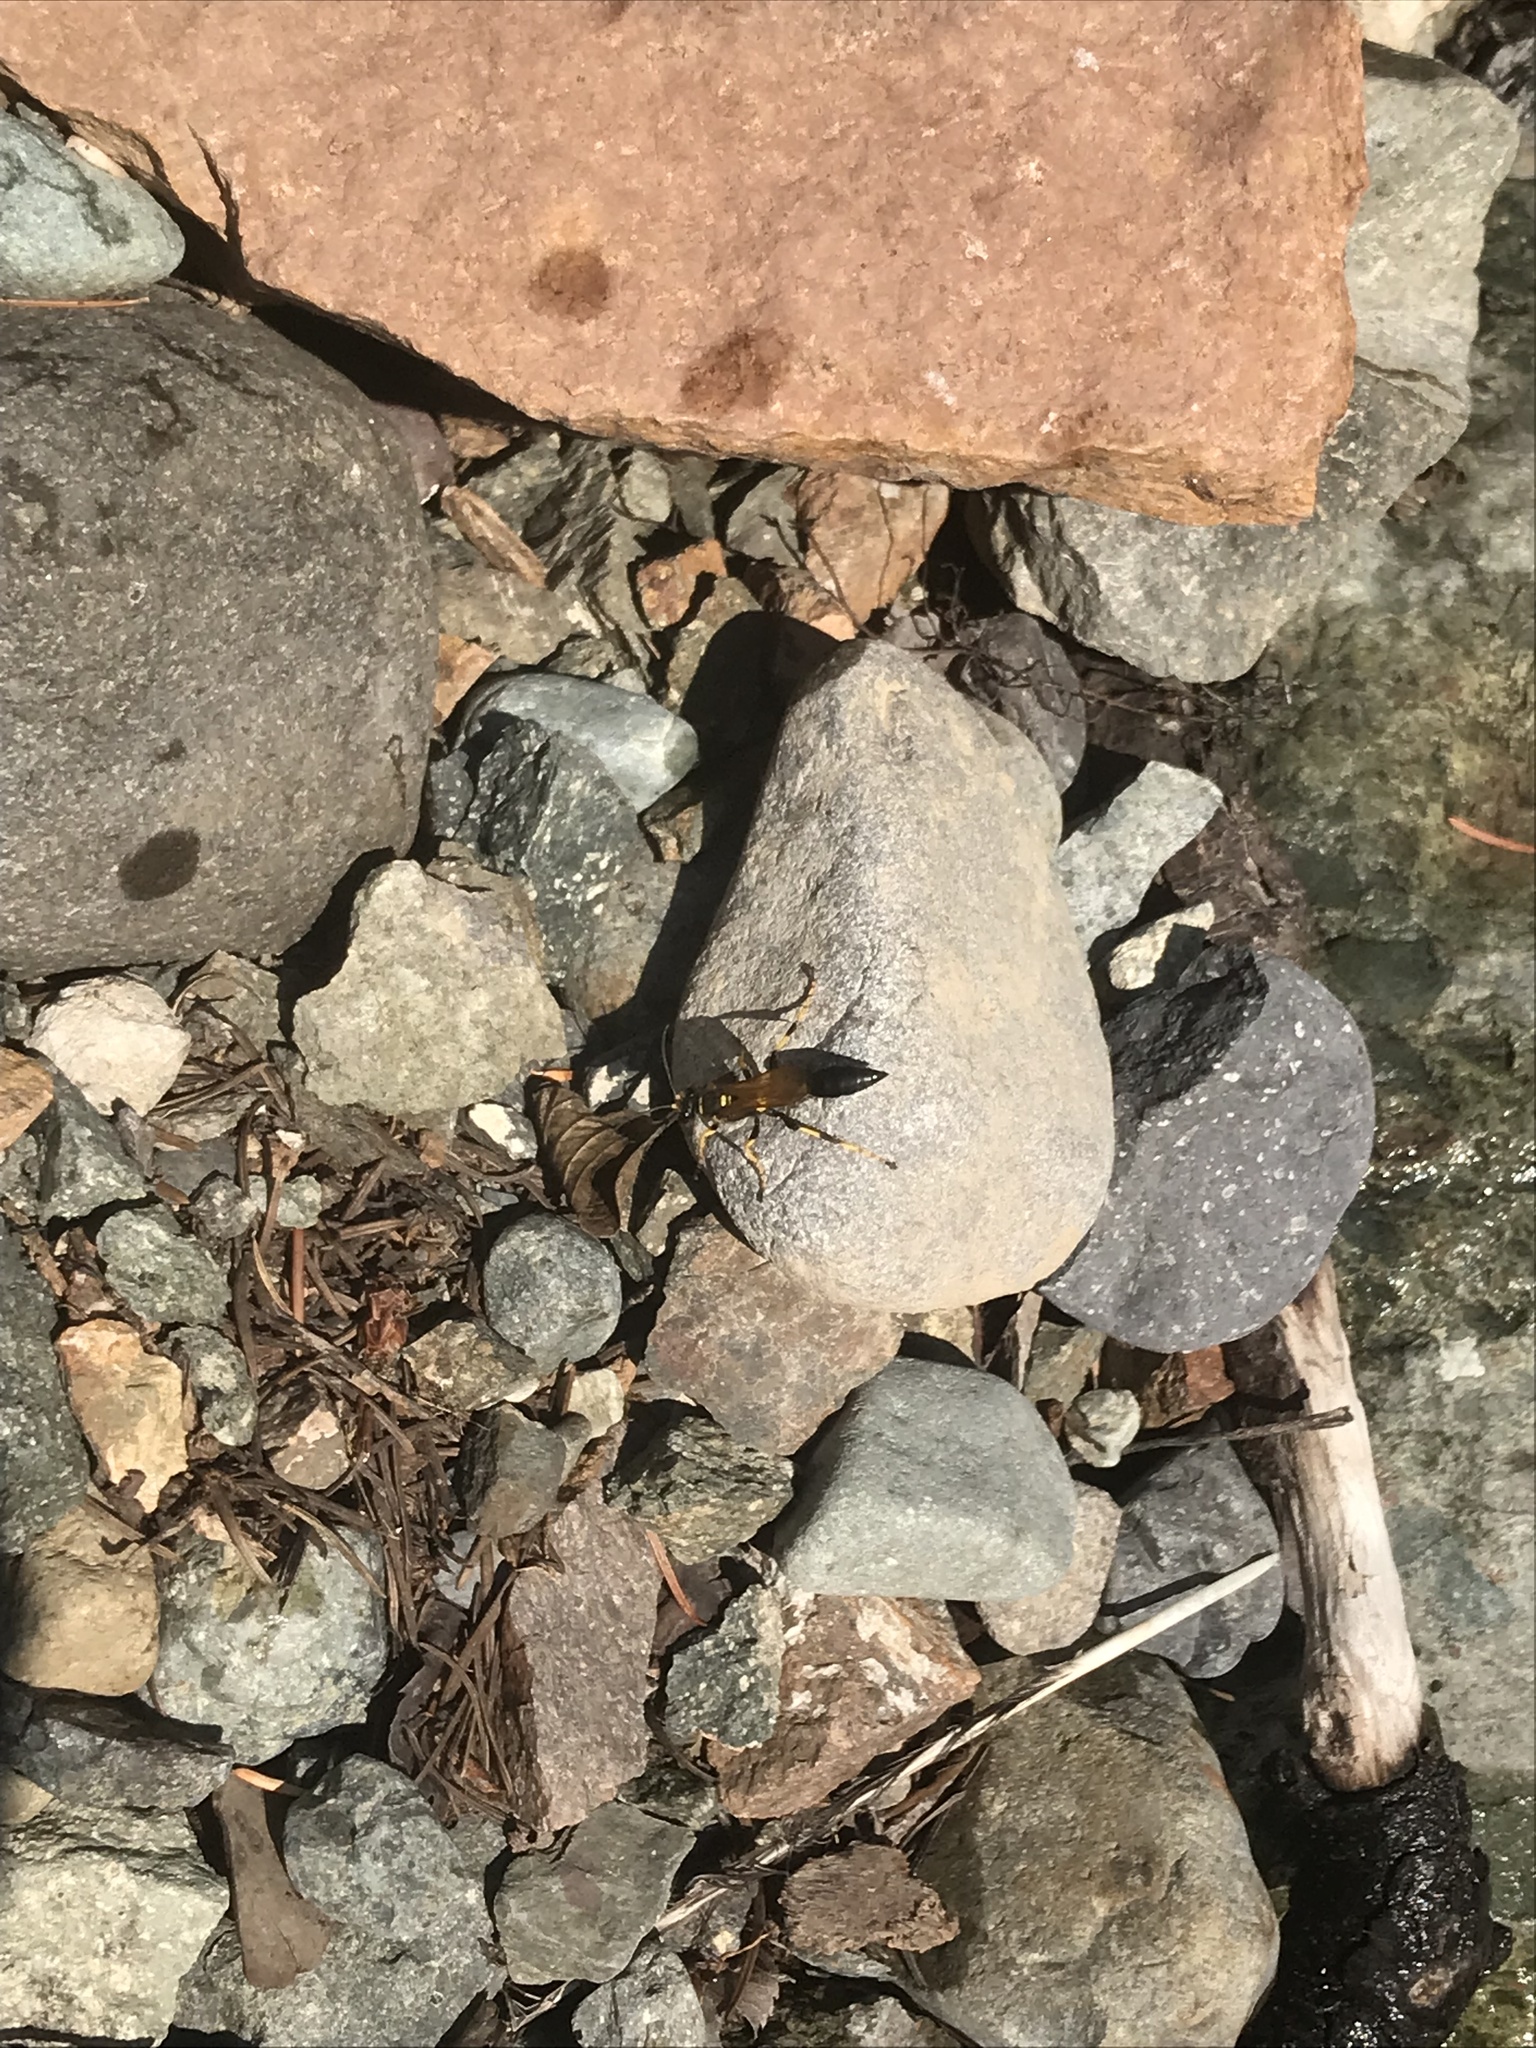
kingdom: Animalia
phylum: Arthropoda
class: Insecta
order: Hymenoptera
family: Sphecidae
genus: Sceliphron
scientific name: Sceliphron caementarium
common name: Mud dauber
